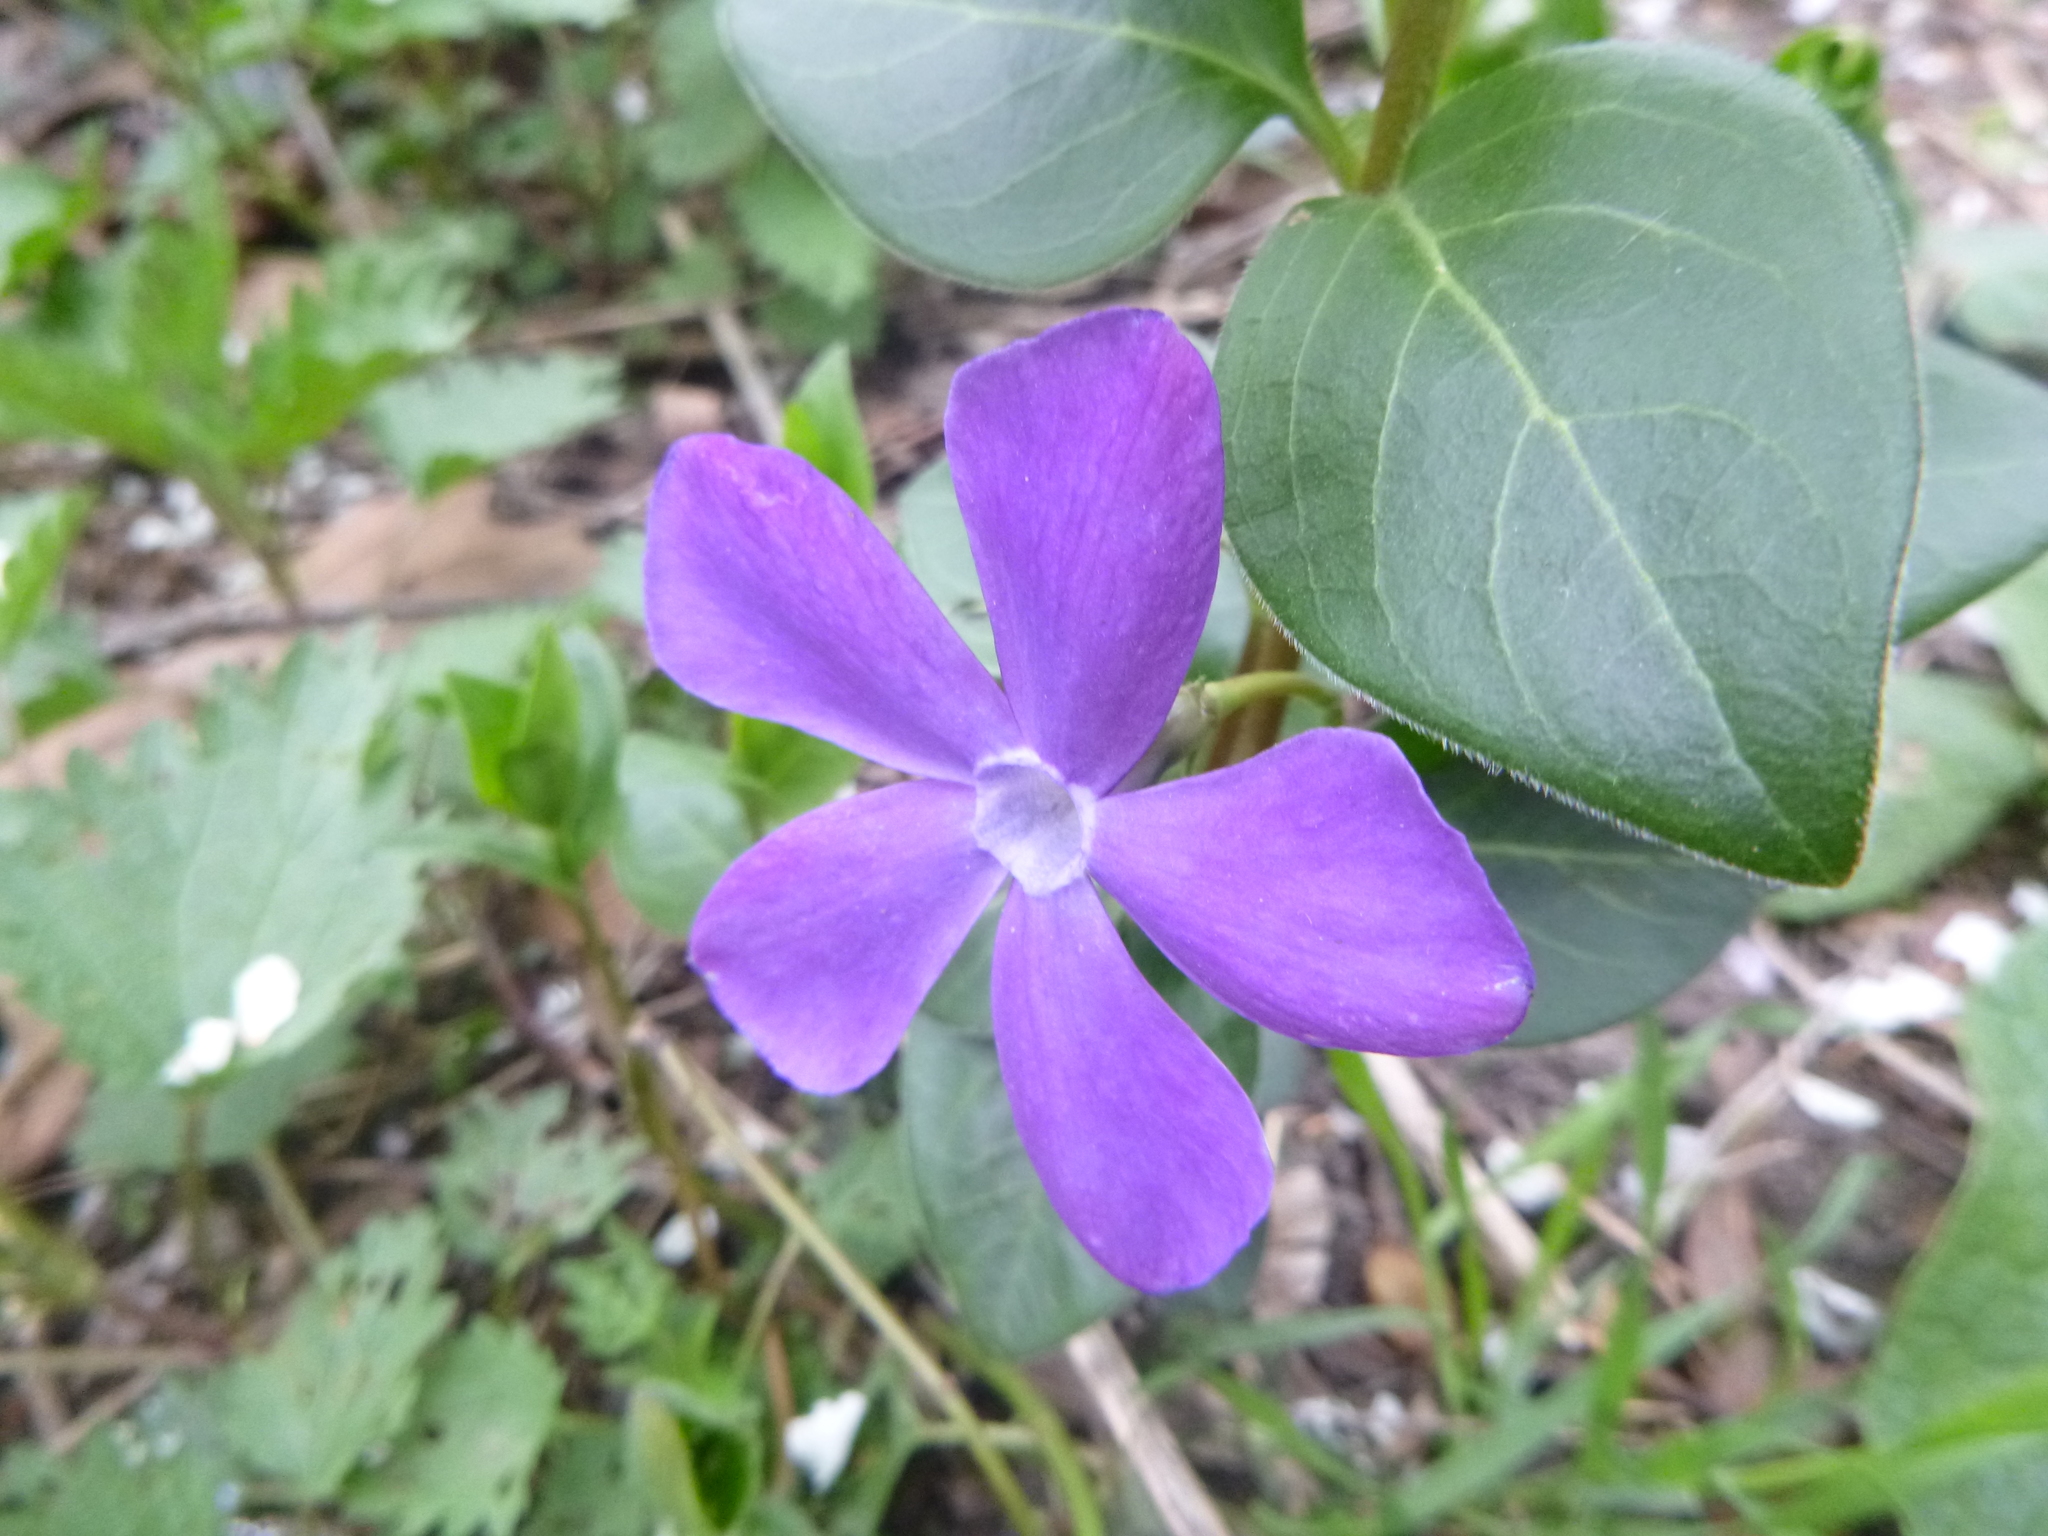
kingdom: Plantae
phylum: Tracheophyta
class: Magnoliopsida
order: Gentianales
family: Apocynaceae
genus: Vinca
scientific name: Vinca major
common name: Greater periwinkle
